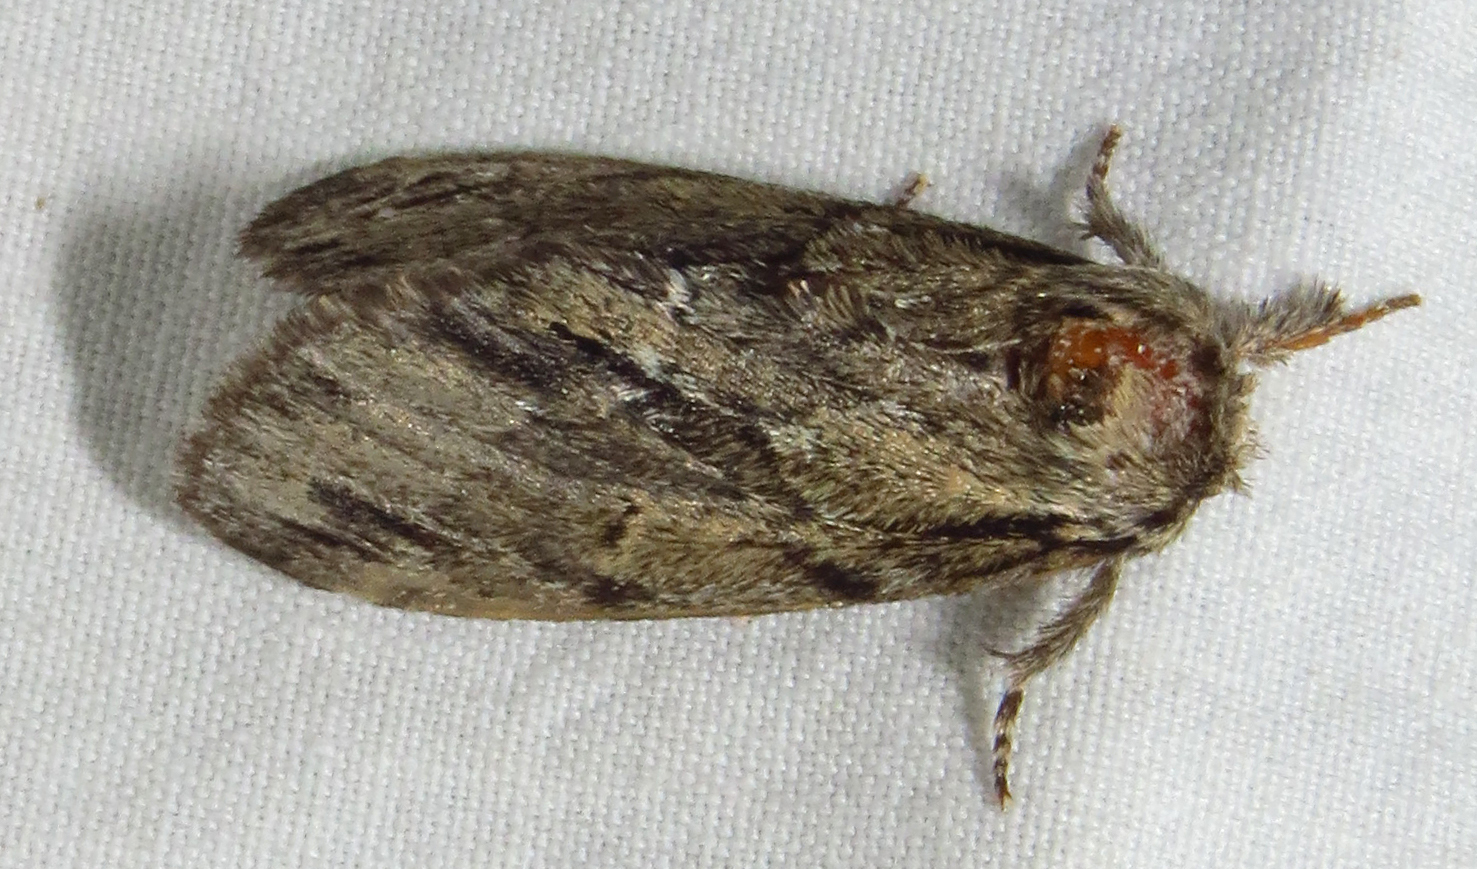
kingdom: Animalia
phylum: Arthropoda
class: Insecta
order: Lepidoptera
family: Notodontidae
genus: Paraeschra
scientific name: Paraeschra georgica
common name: Georgian prominent
